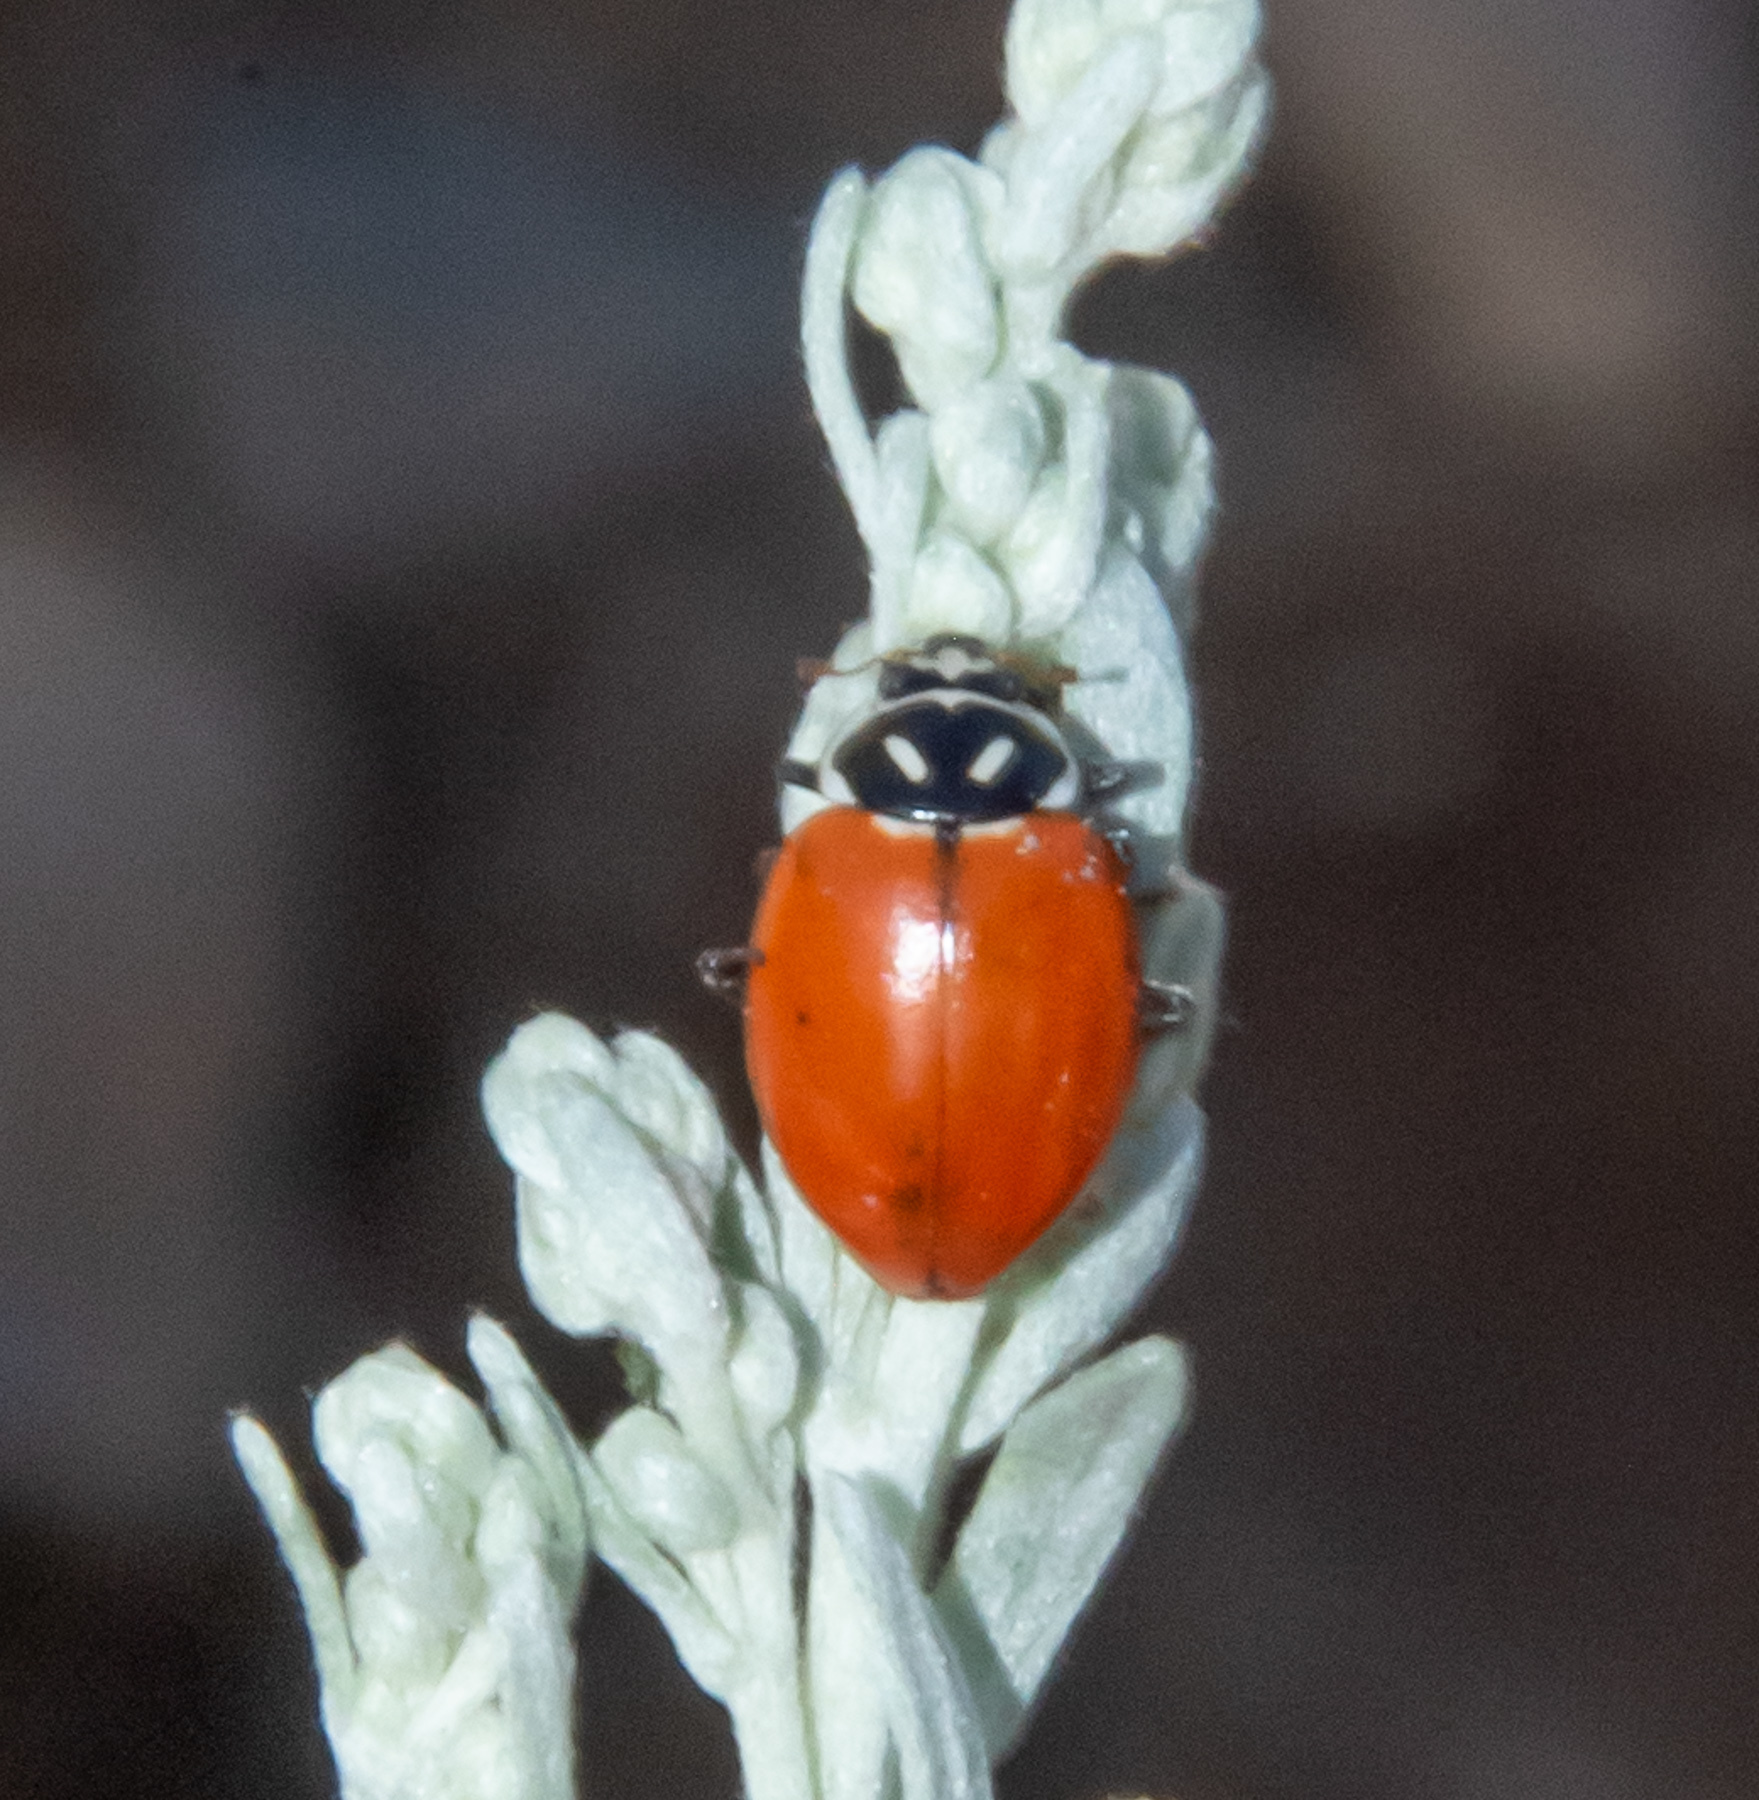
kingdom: Animalia
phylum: Arthropoda
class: Insecta
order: Coleoptera
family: Coccinellidae
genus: Hippodamia
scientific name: Hippodamia convergens
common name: Convergent lady beetle
